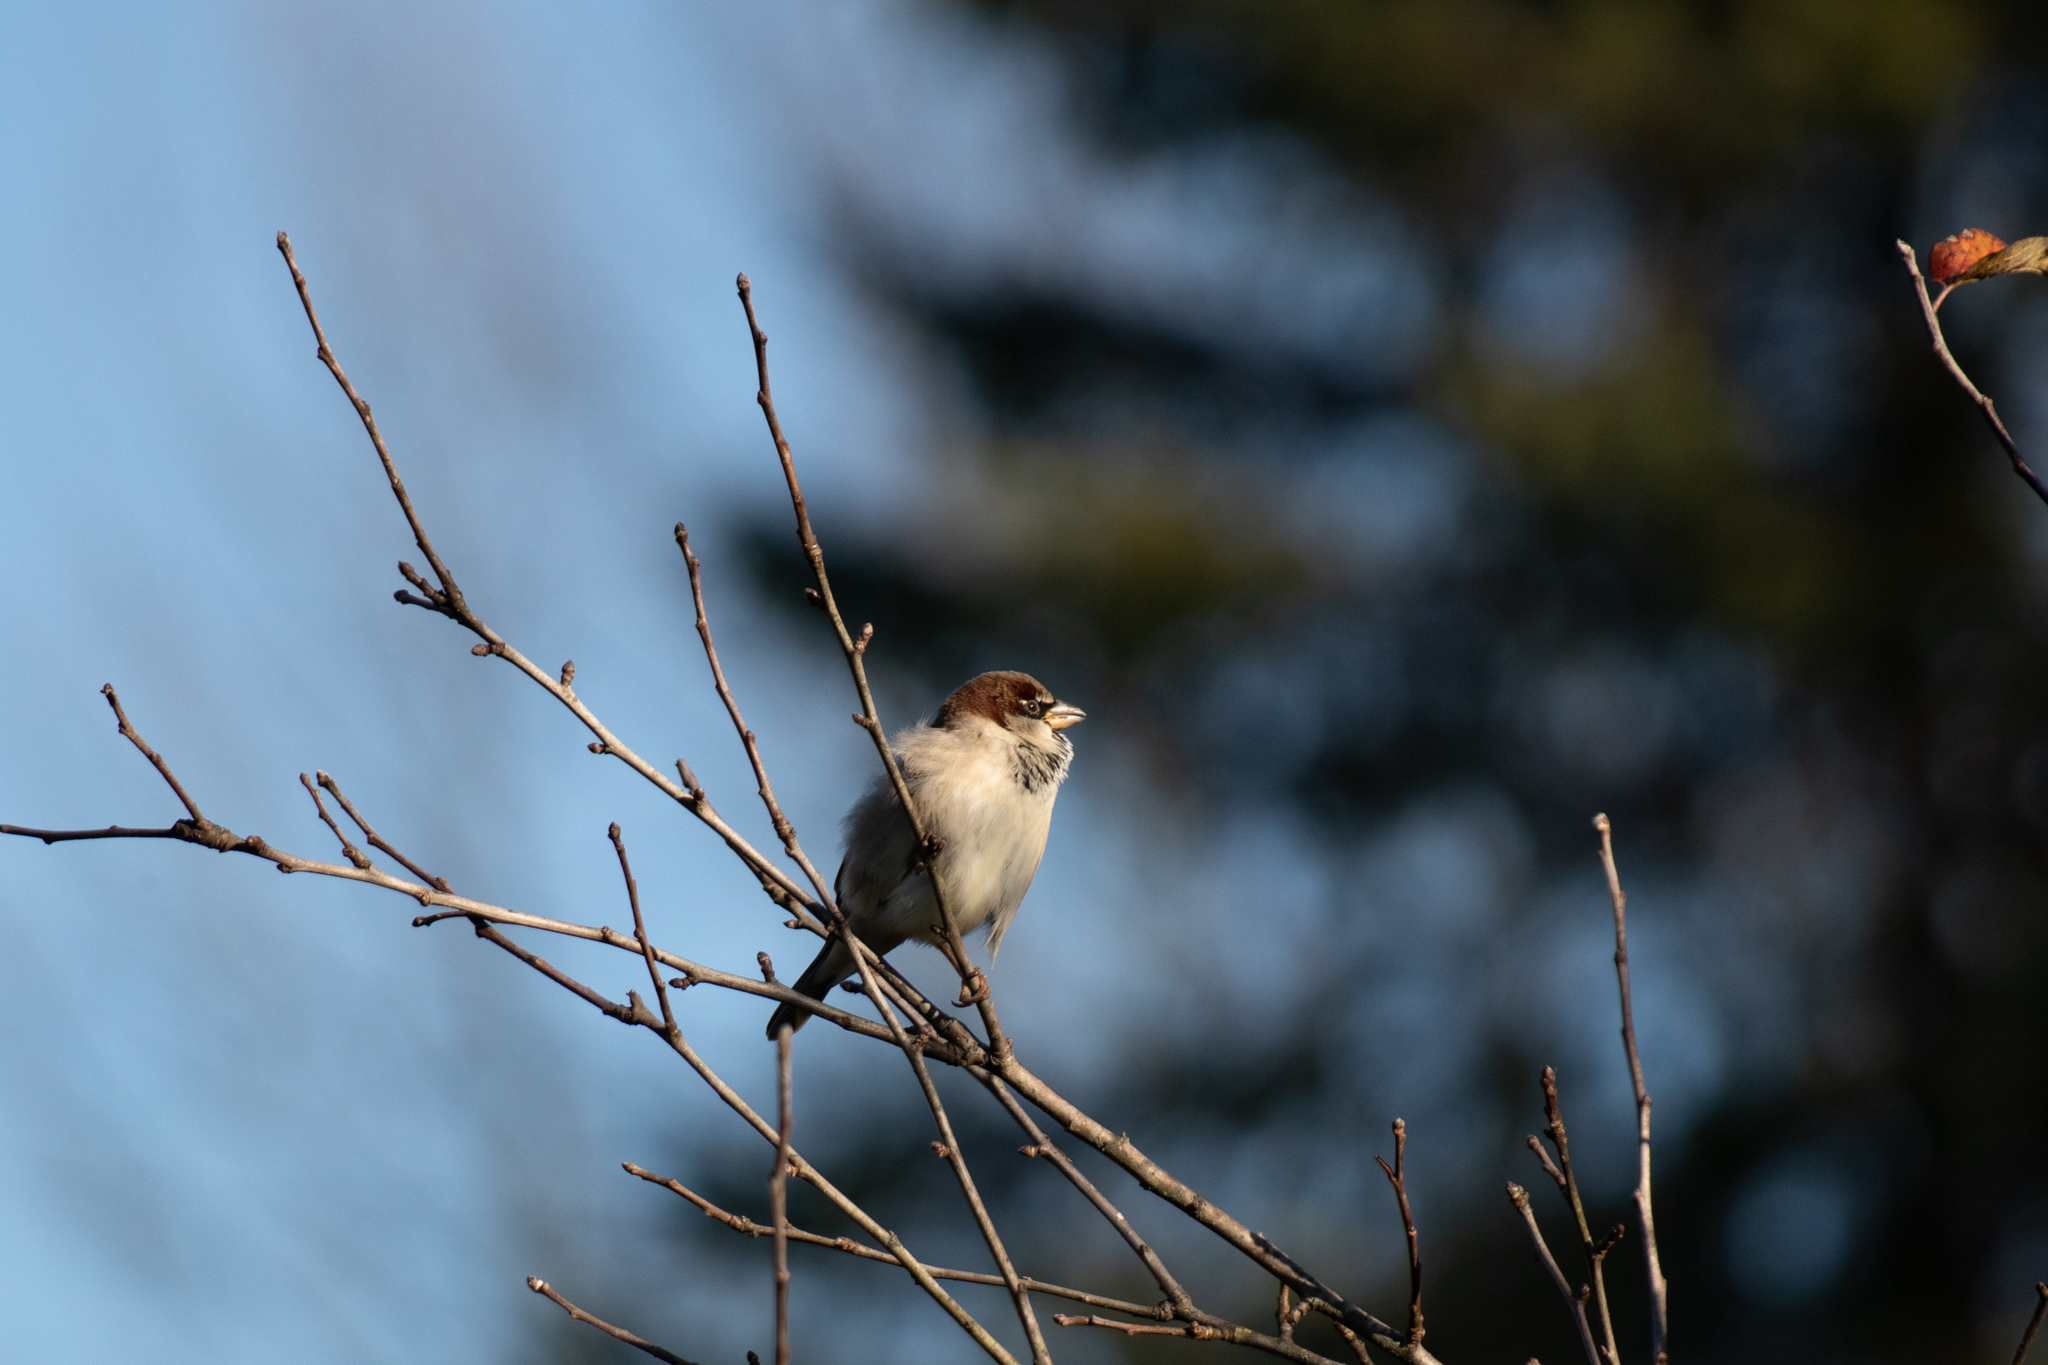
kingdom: Animalia
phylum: Chordata
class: Aves
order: Passeriformes
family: Passeridae
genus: Passer
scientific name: Passer domesticus
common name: House sparrow
